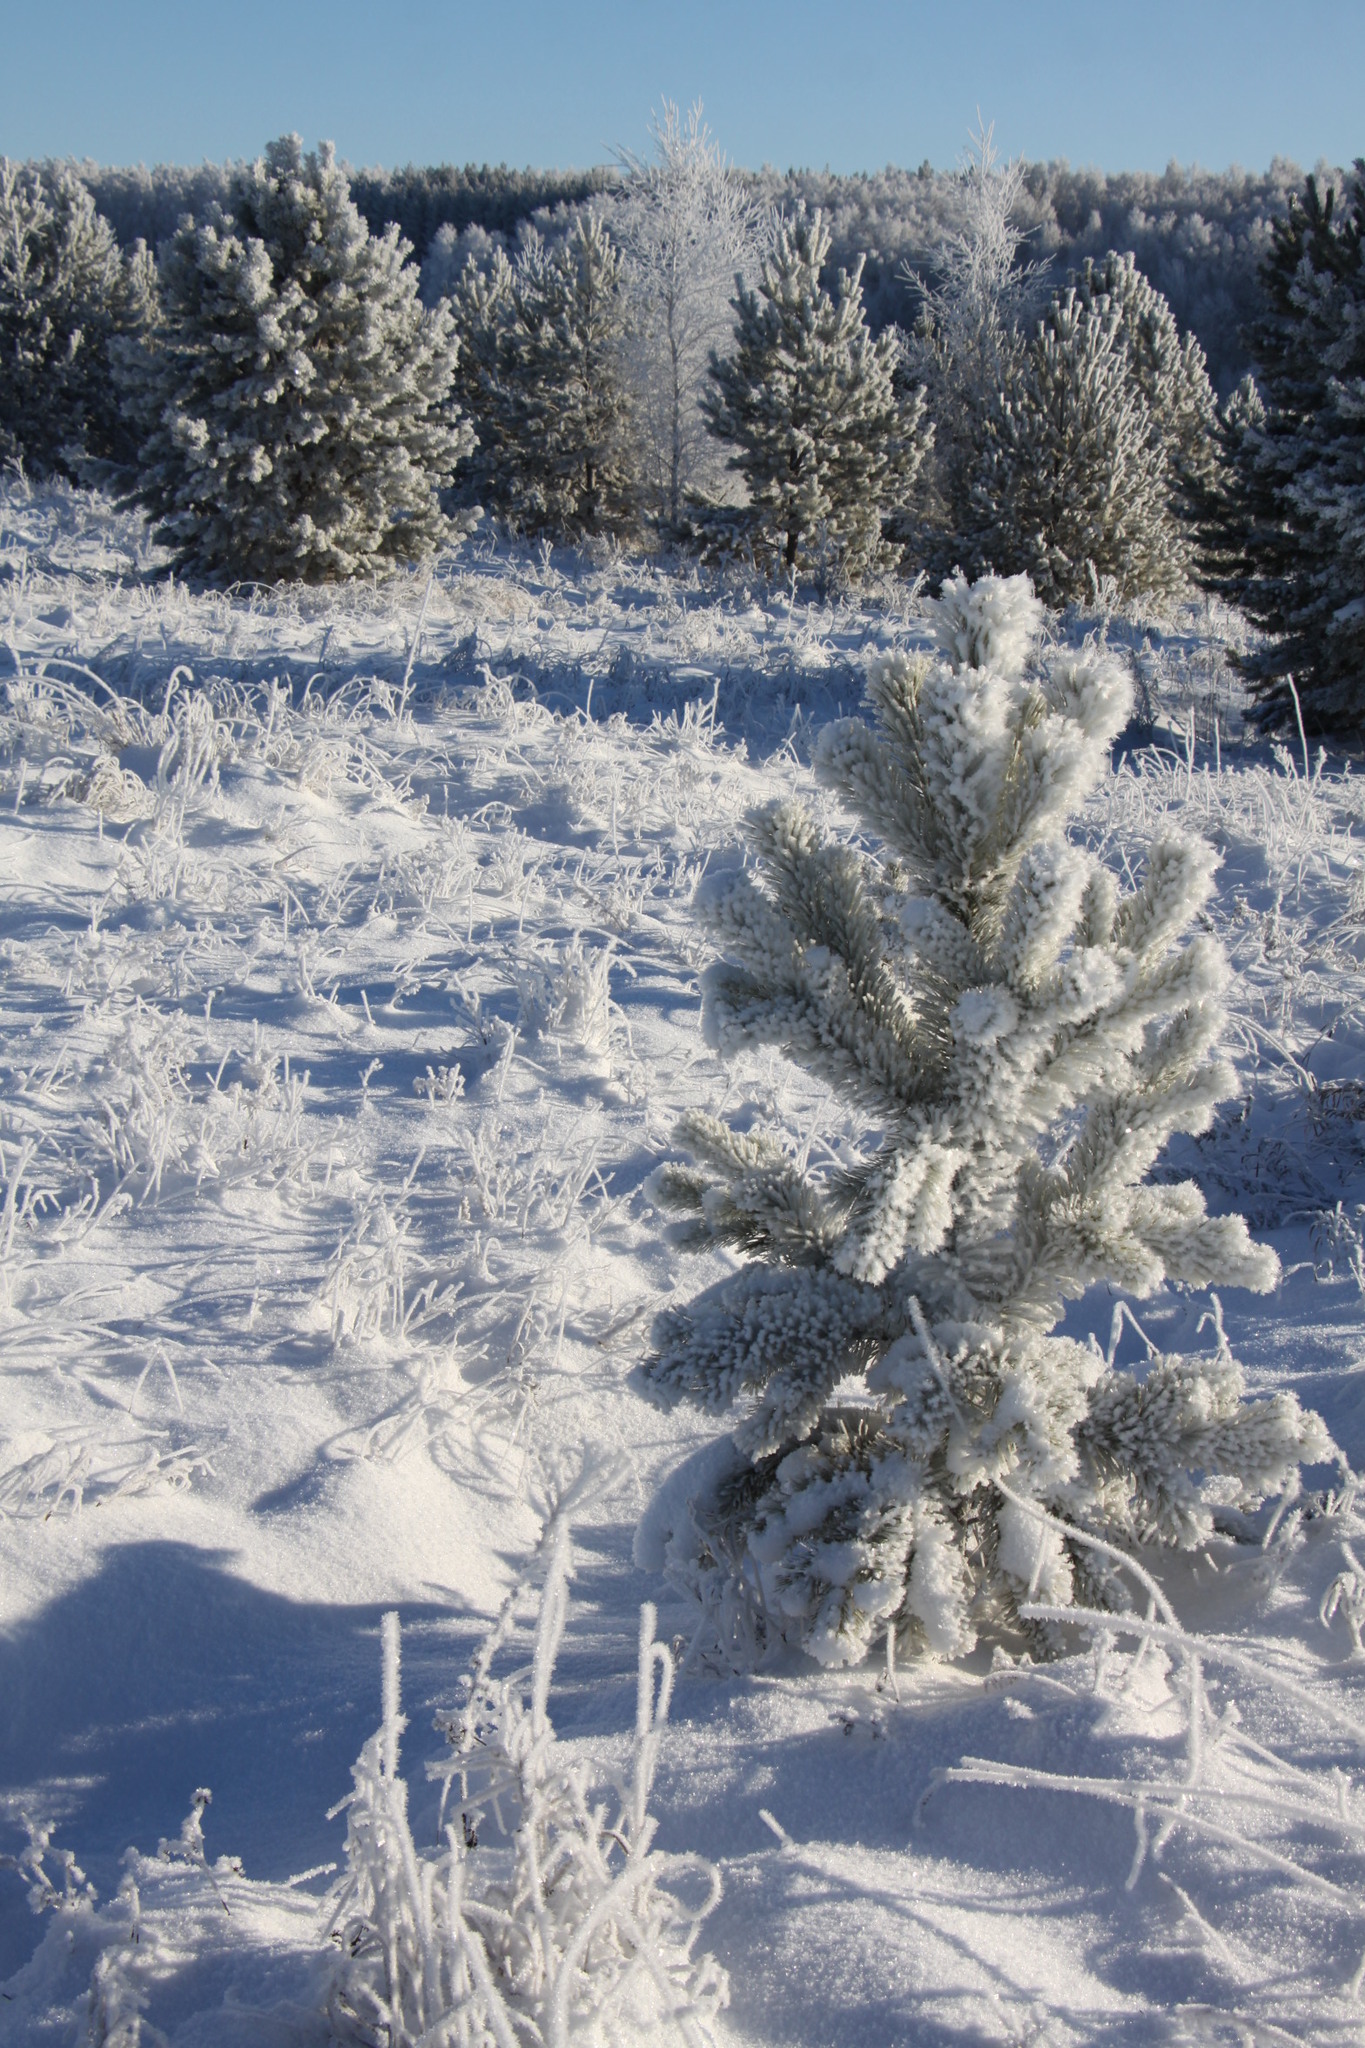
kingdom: Plantae
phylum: Tracheophyta
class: Pinopsida
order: Pinales
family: Pinaceae
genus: Pinus
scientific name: Pinus sylvestris
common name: Scots pine
